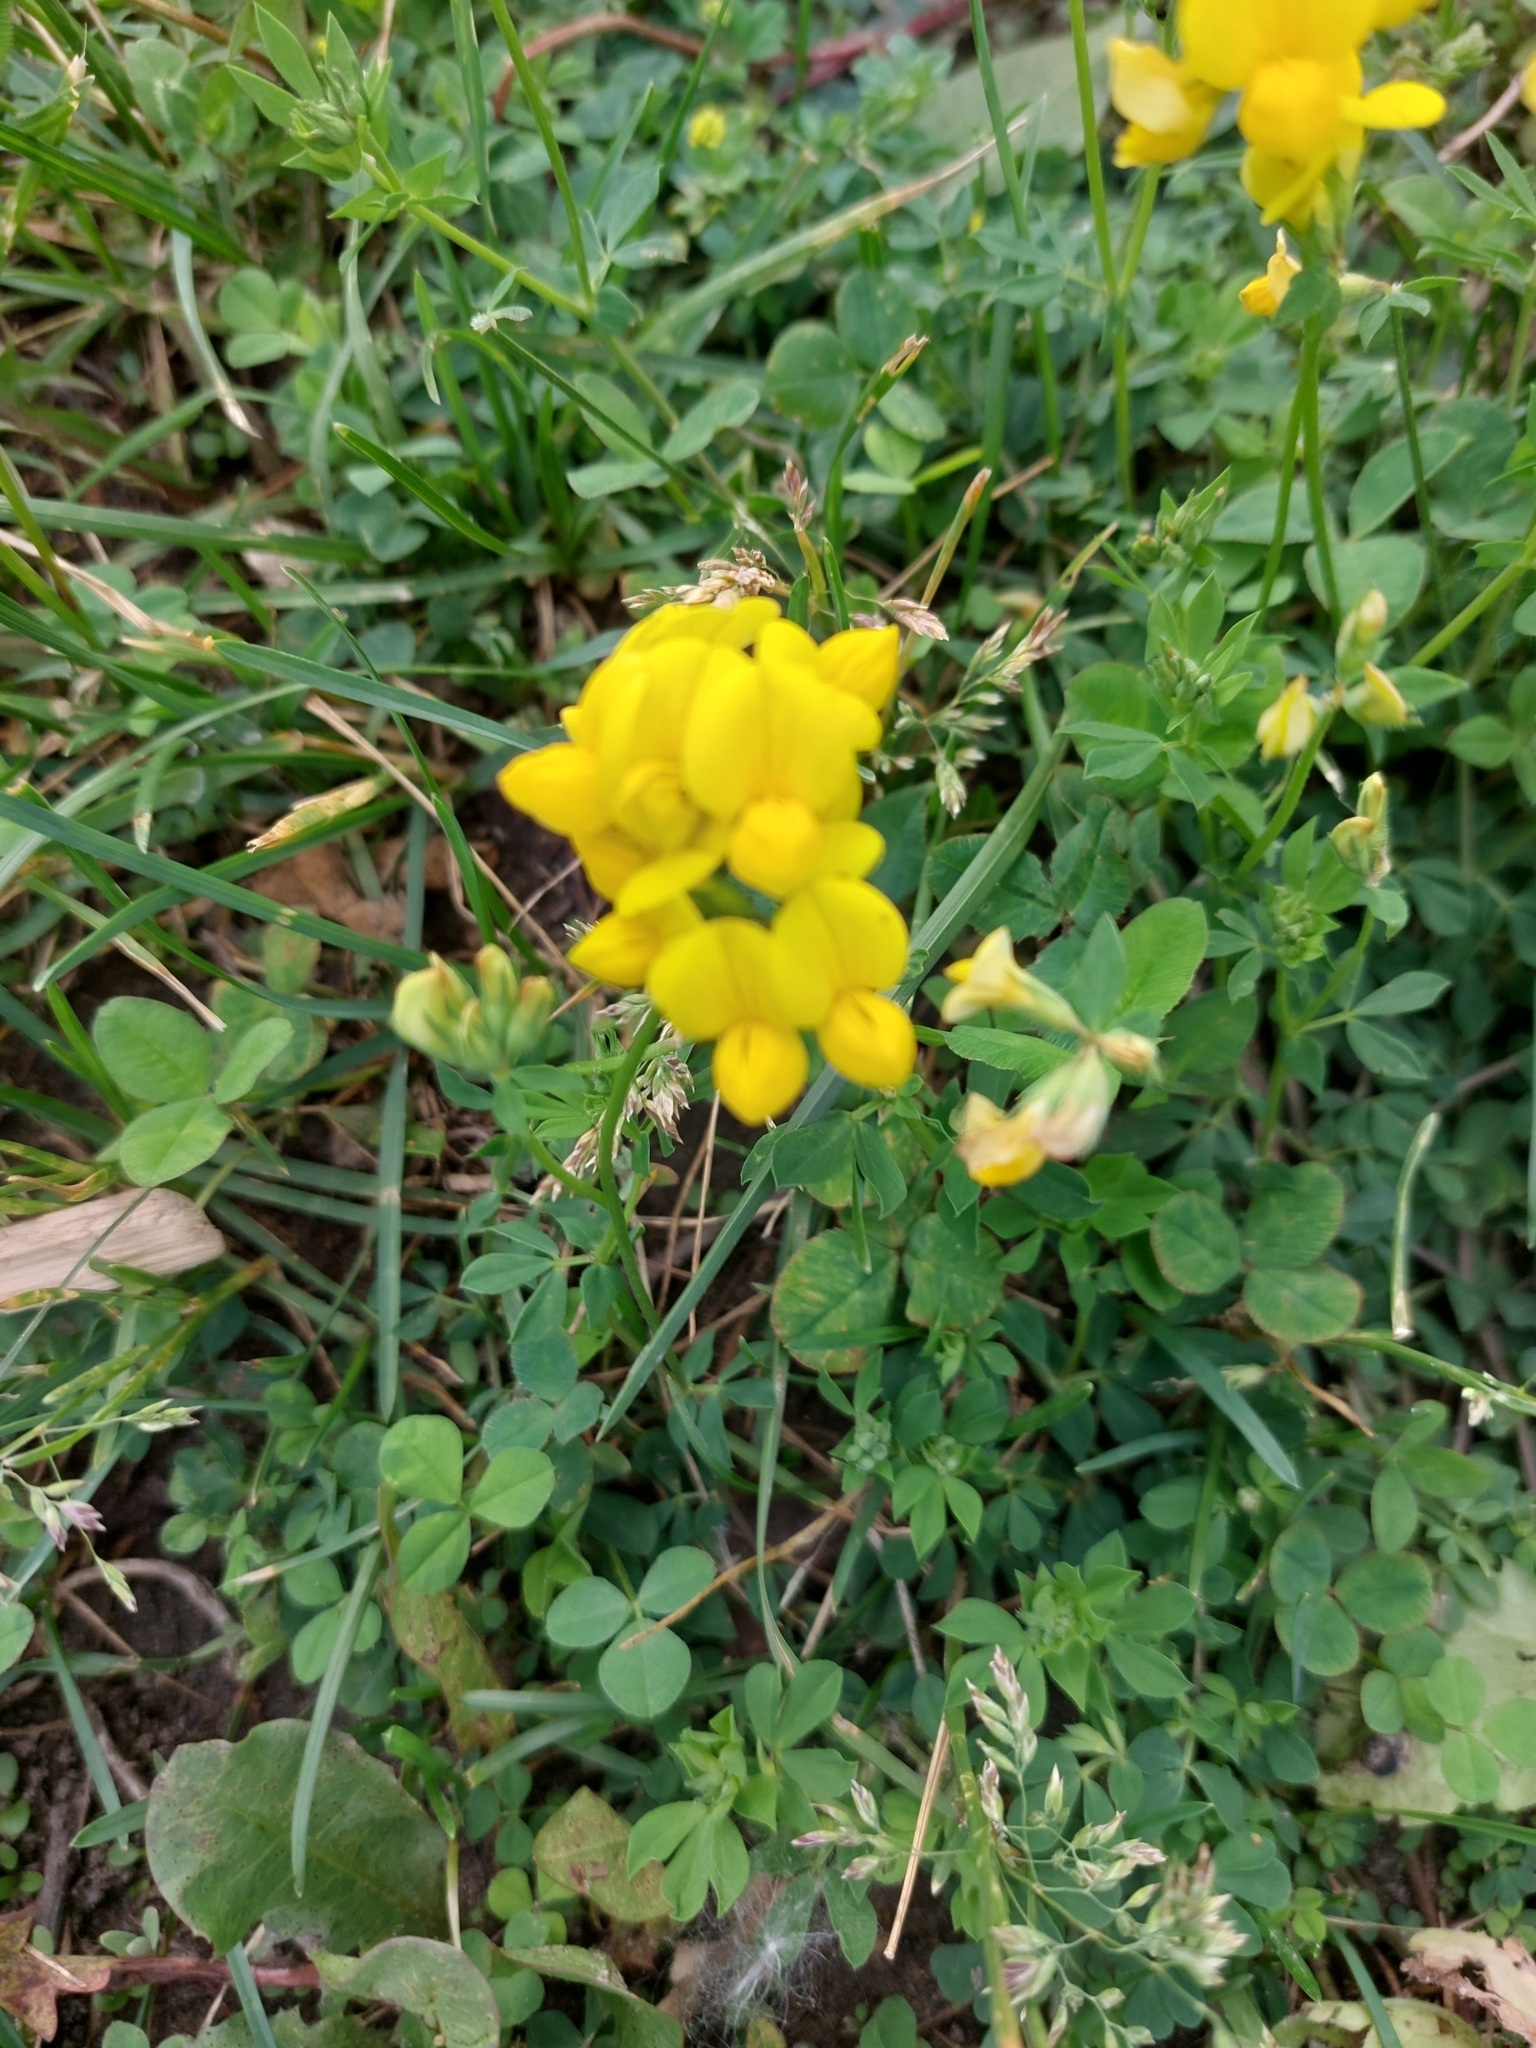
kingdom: Plantae
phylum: Tracheophyta
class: Magnoliopsida
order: Fabales
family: Fabaceae
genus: Lotus
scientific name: Lotus corniculatus
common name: Common bird's-foot-trefoil
